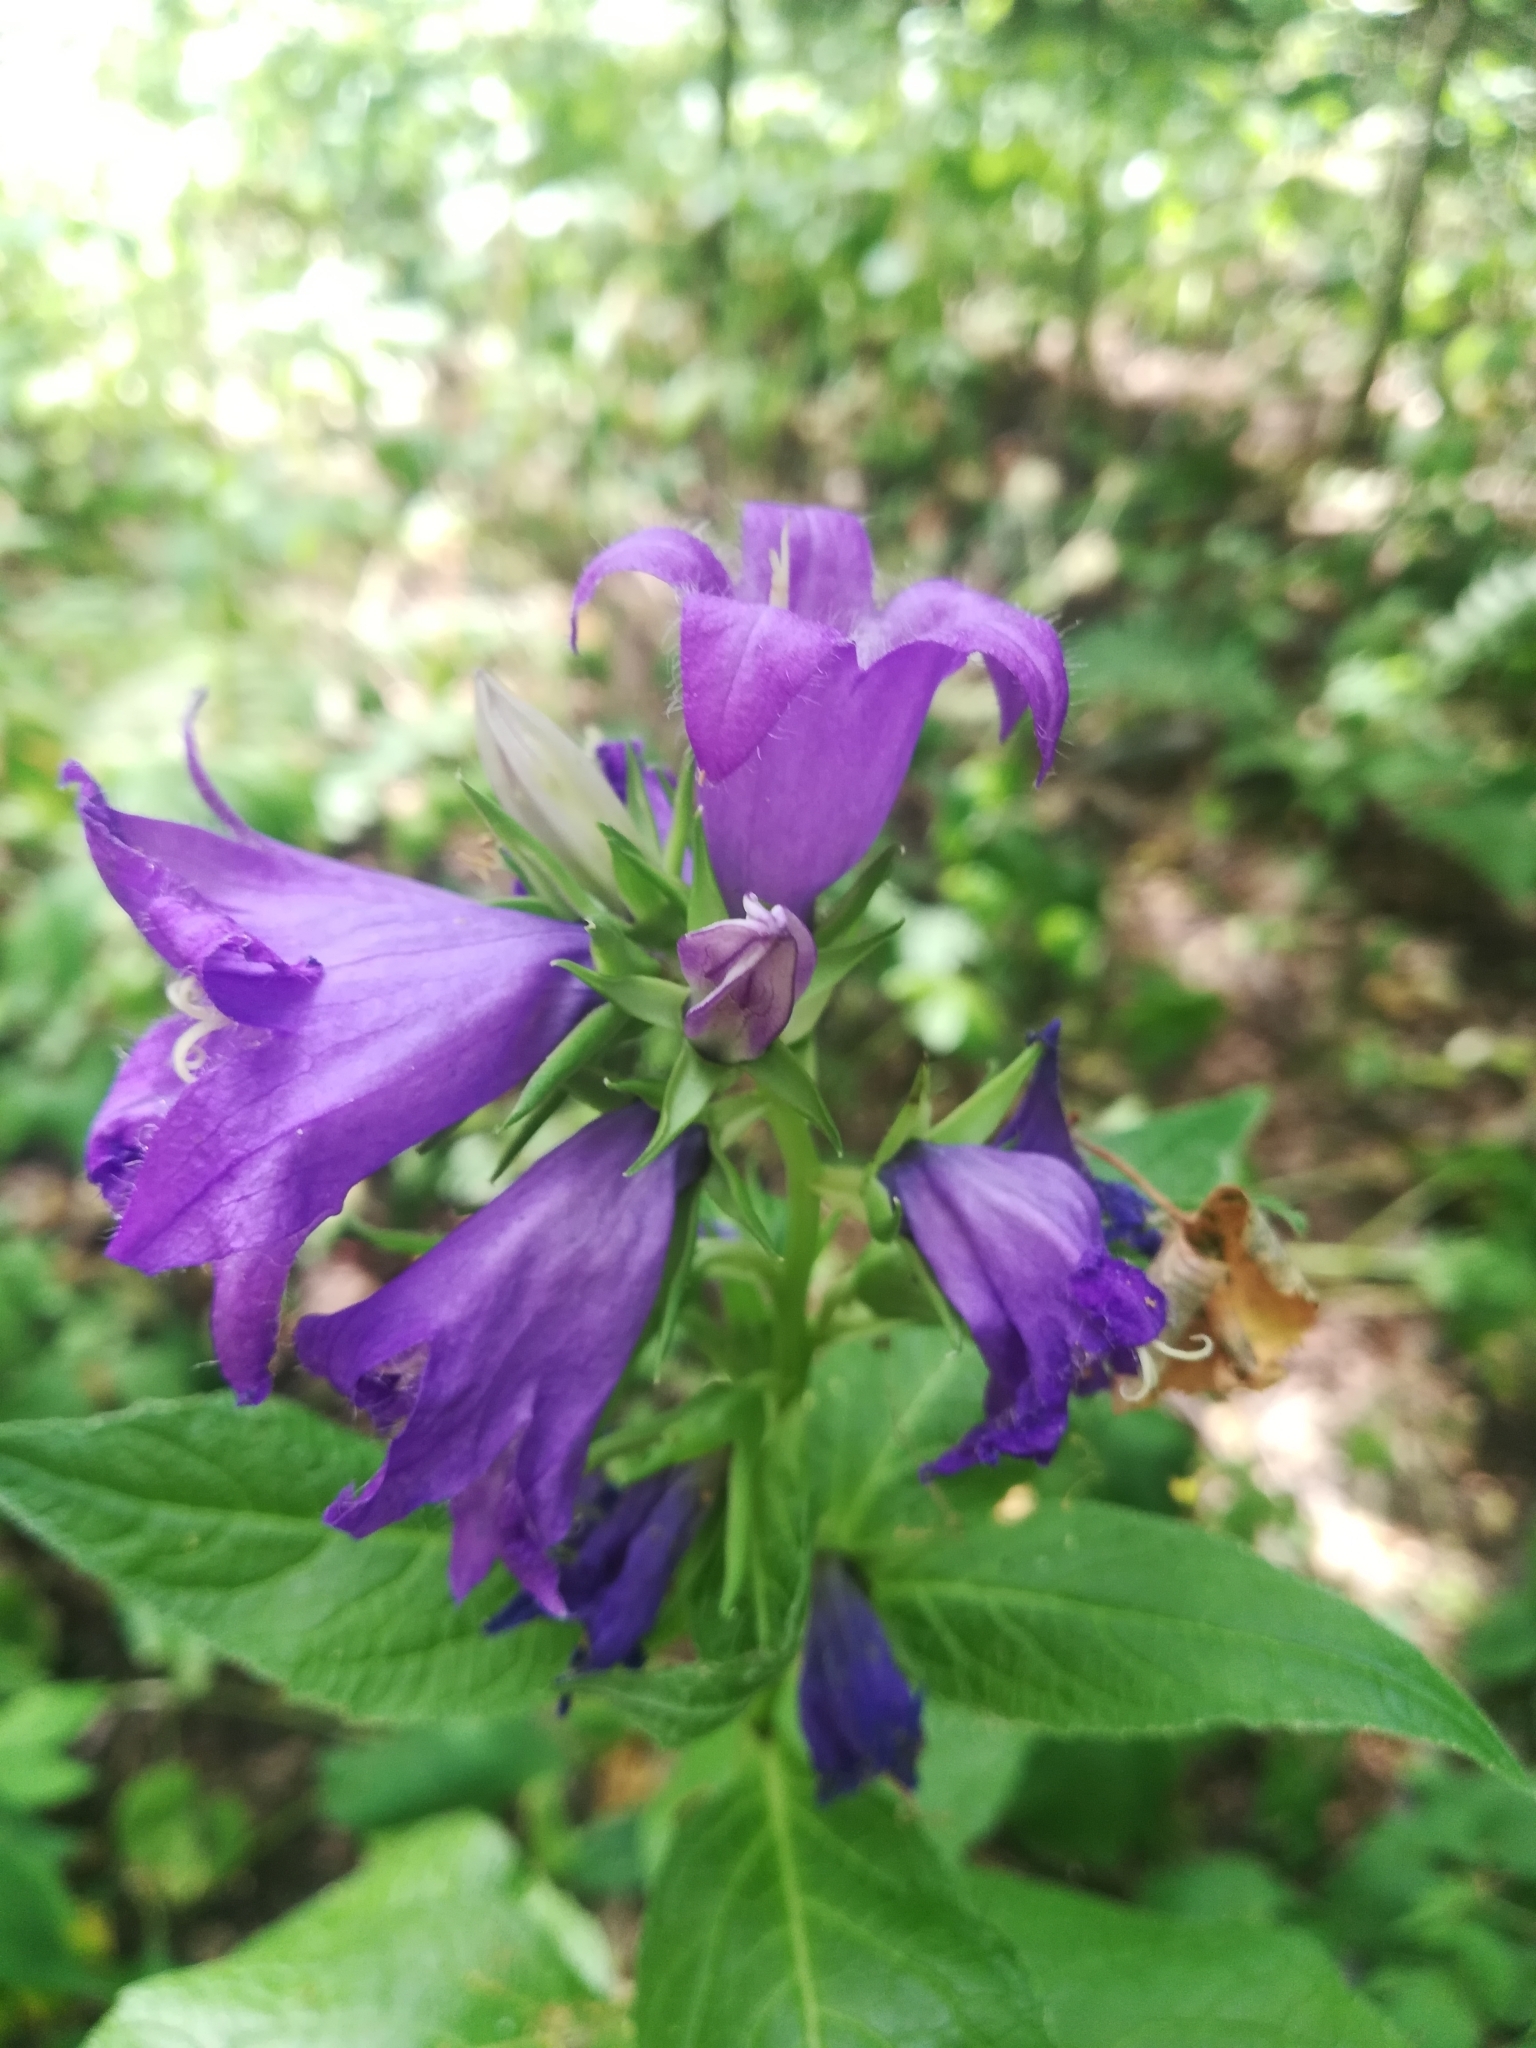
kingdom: Plantae
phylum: Tracheophyta
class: Magnoliopsida
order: Asterales
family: Campanulaceae
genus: Campanula
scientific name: Campanula latifolia
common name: Giant bellflower
